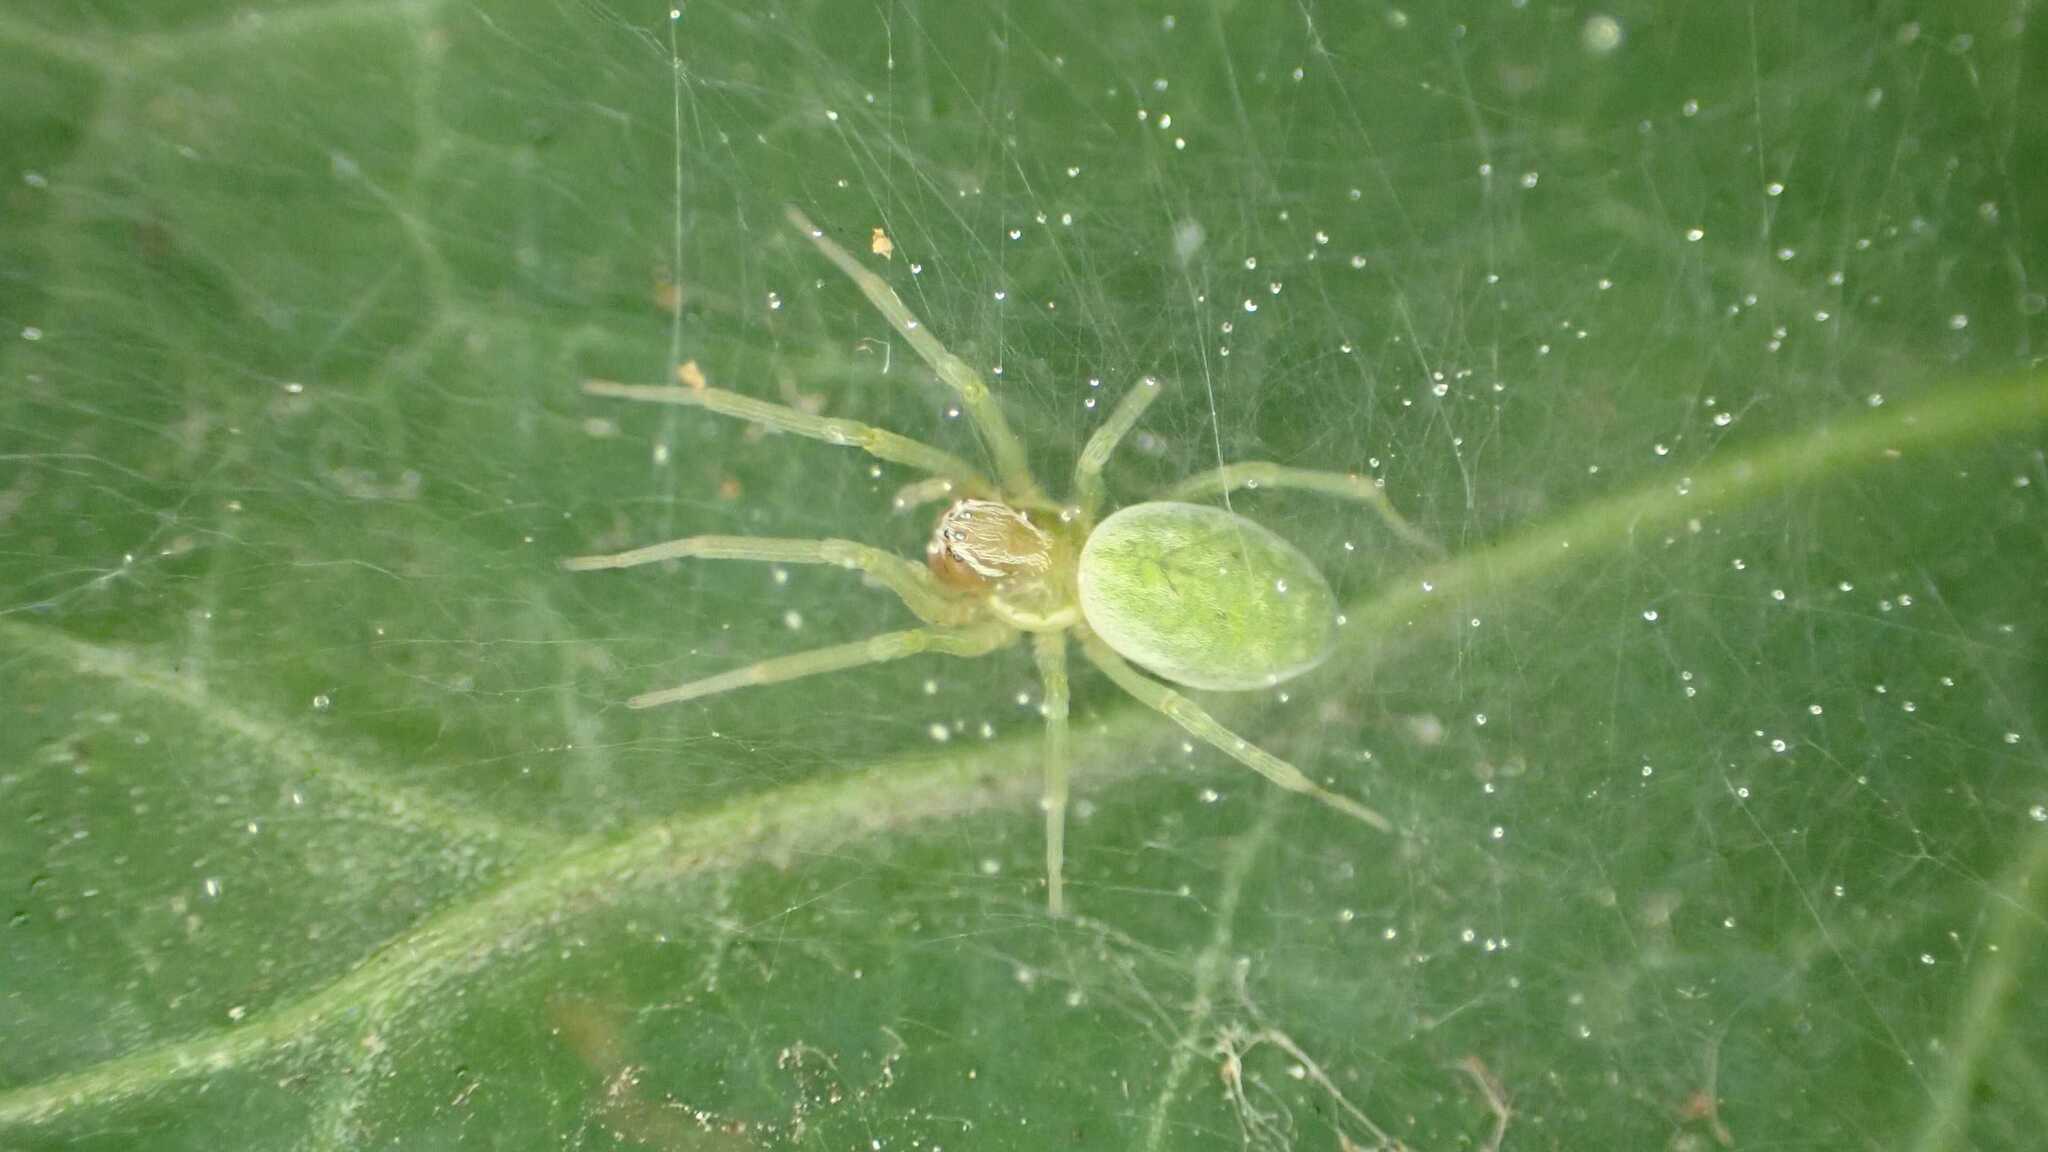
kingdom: Animalia
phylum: Arthropoda
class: Arachnida
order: Araneae
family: Dictynidae
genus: Nigma
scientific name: Nigma walckenaeri
